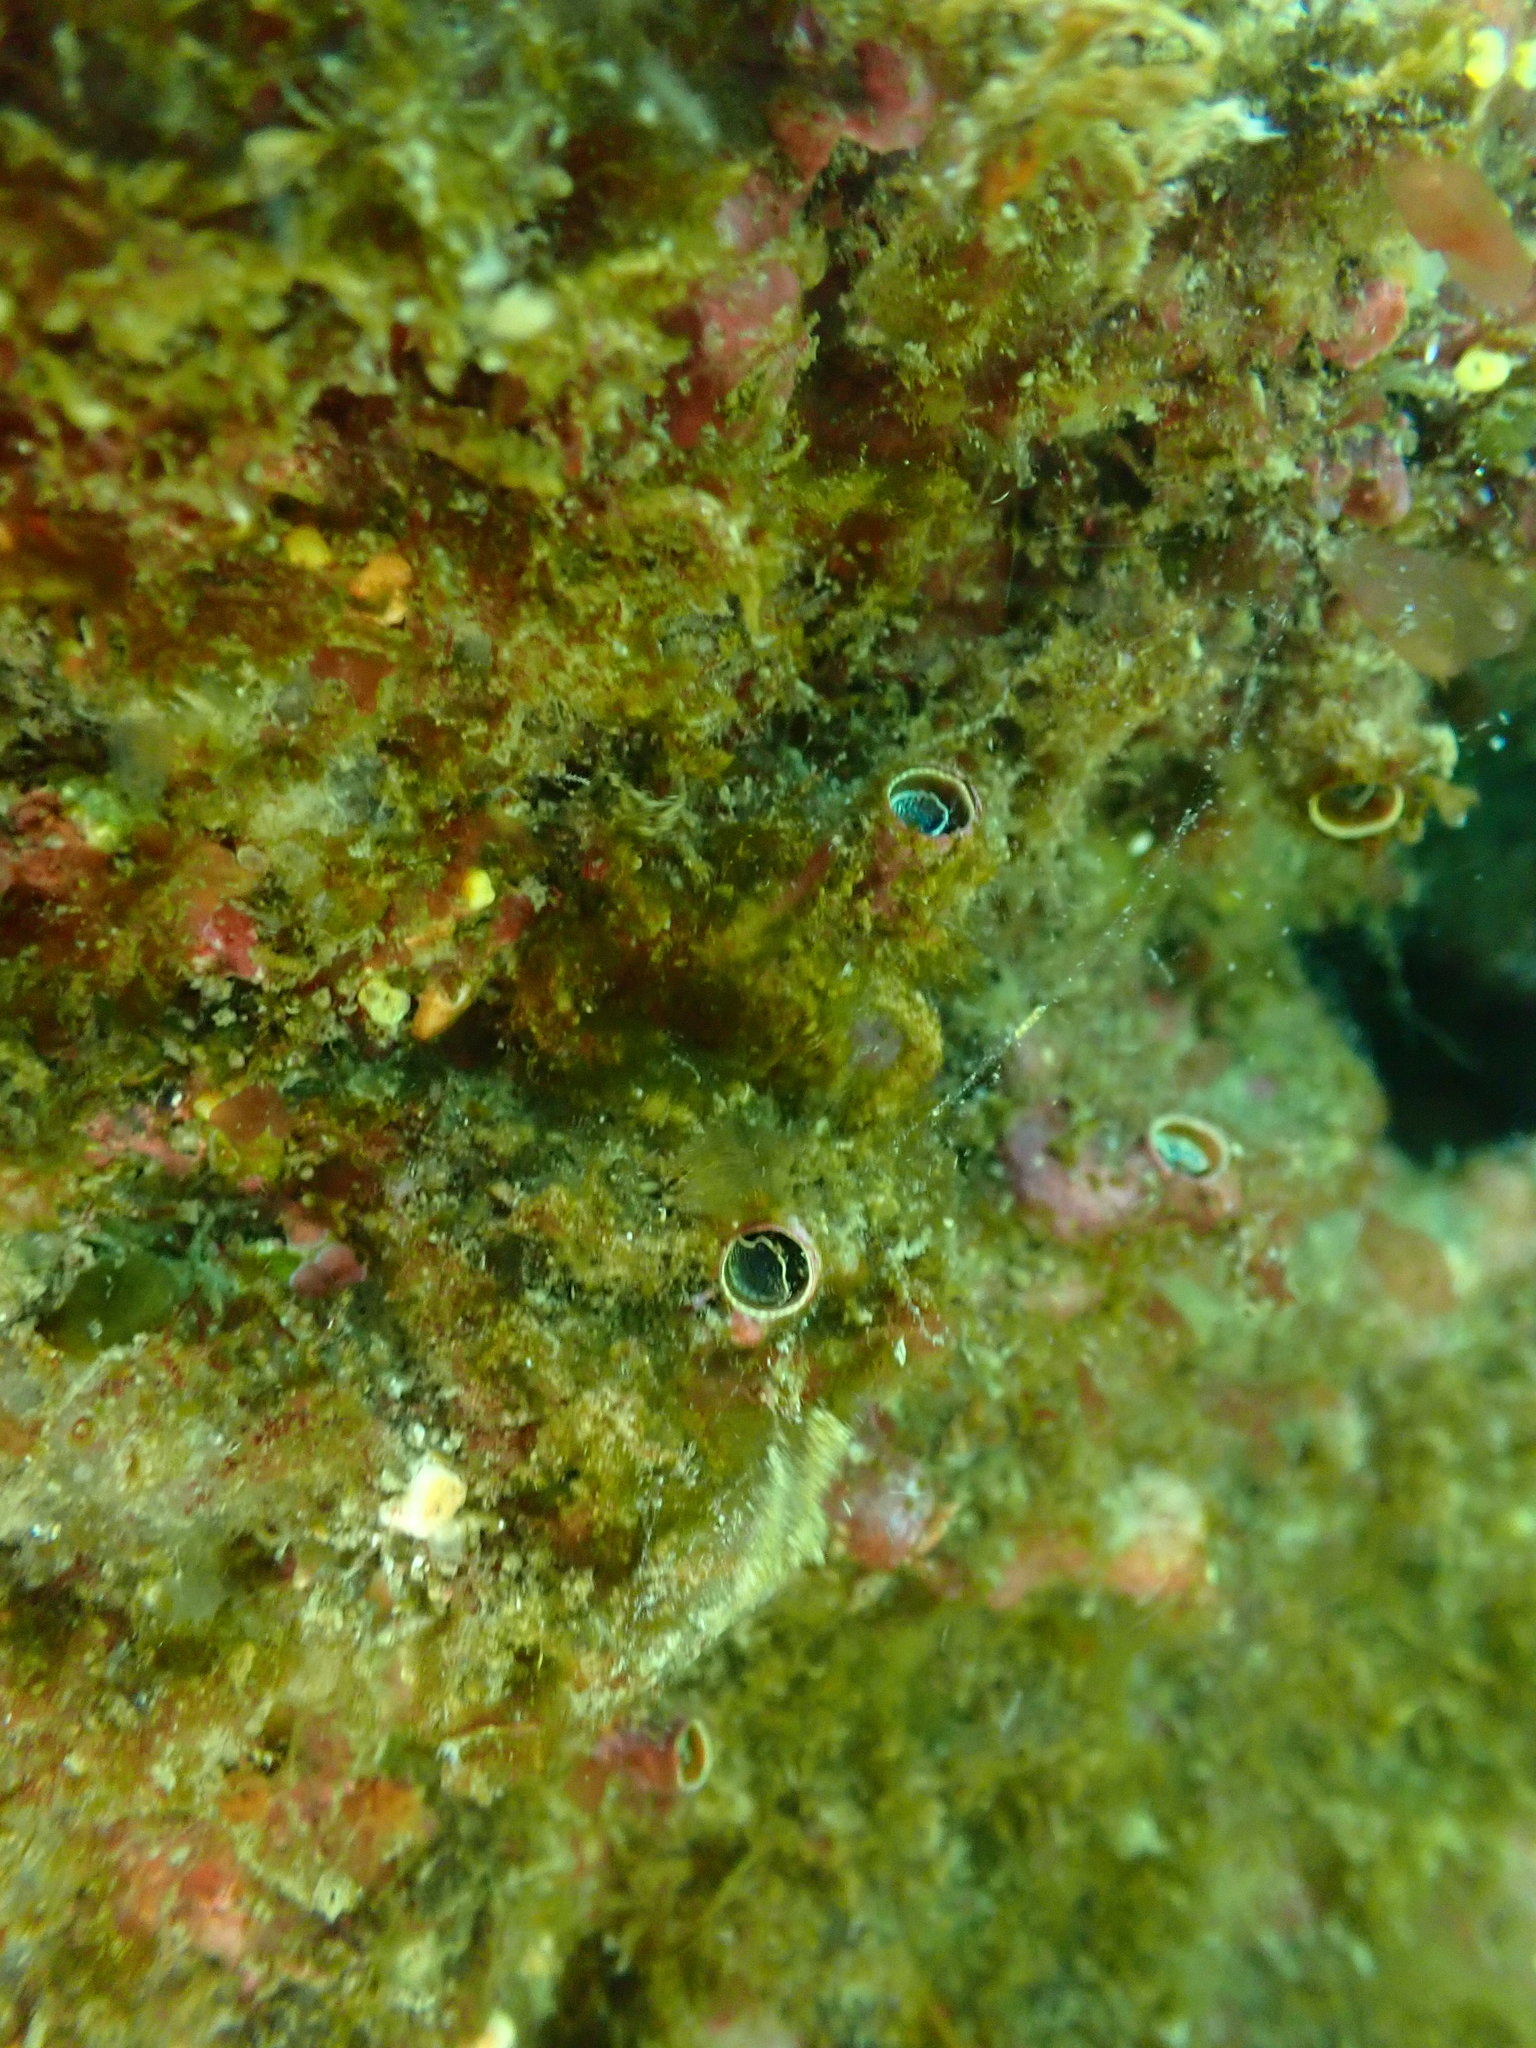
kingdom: Animalia
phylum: Mollusca
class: Gastropoda
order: Littorinimorpha
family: Vermetidae
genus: Thylacodes
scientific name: Thylacodes aotearoicus
